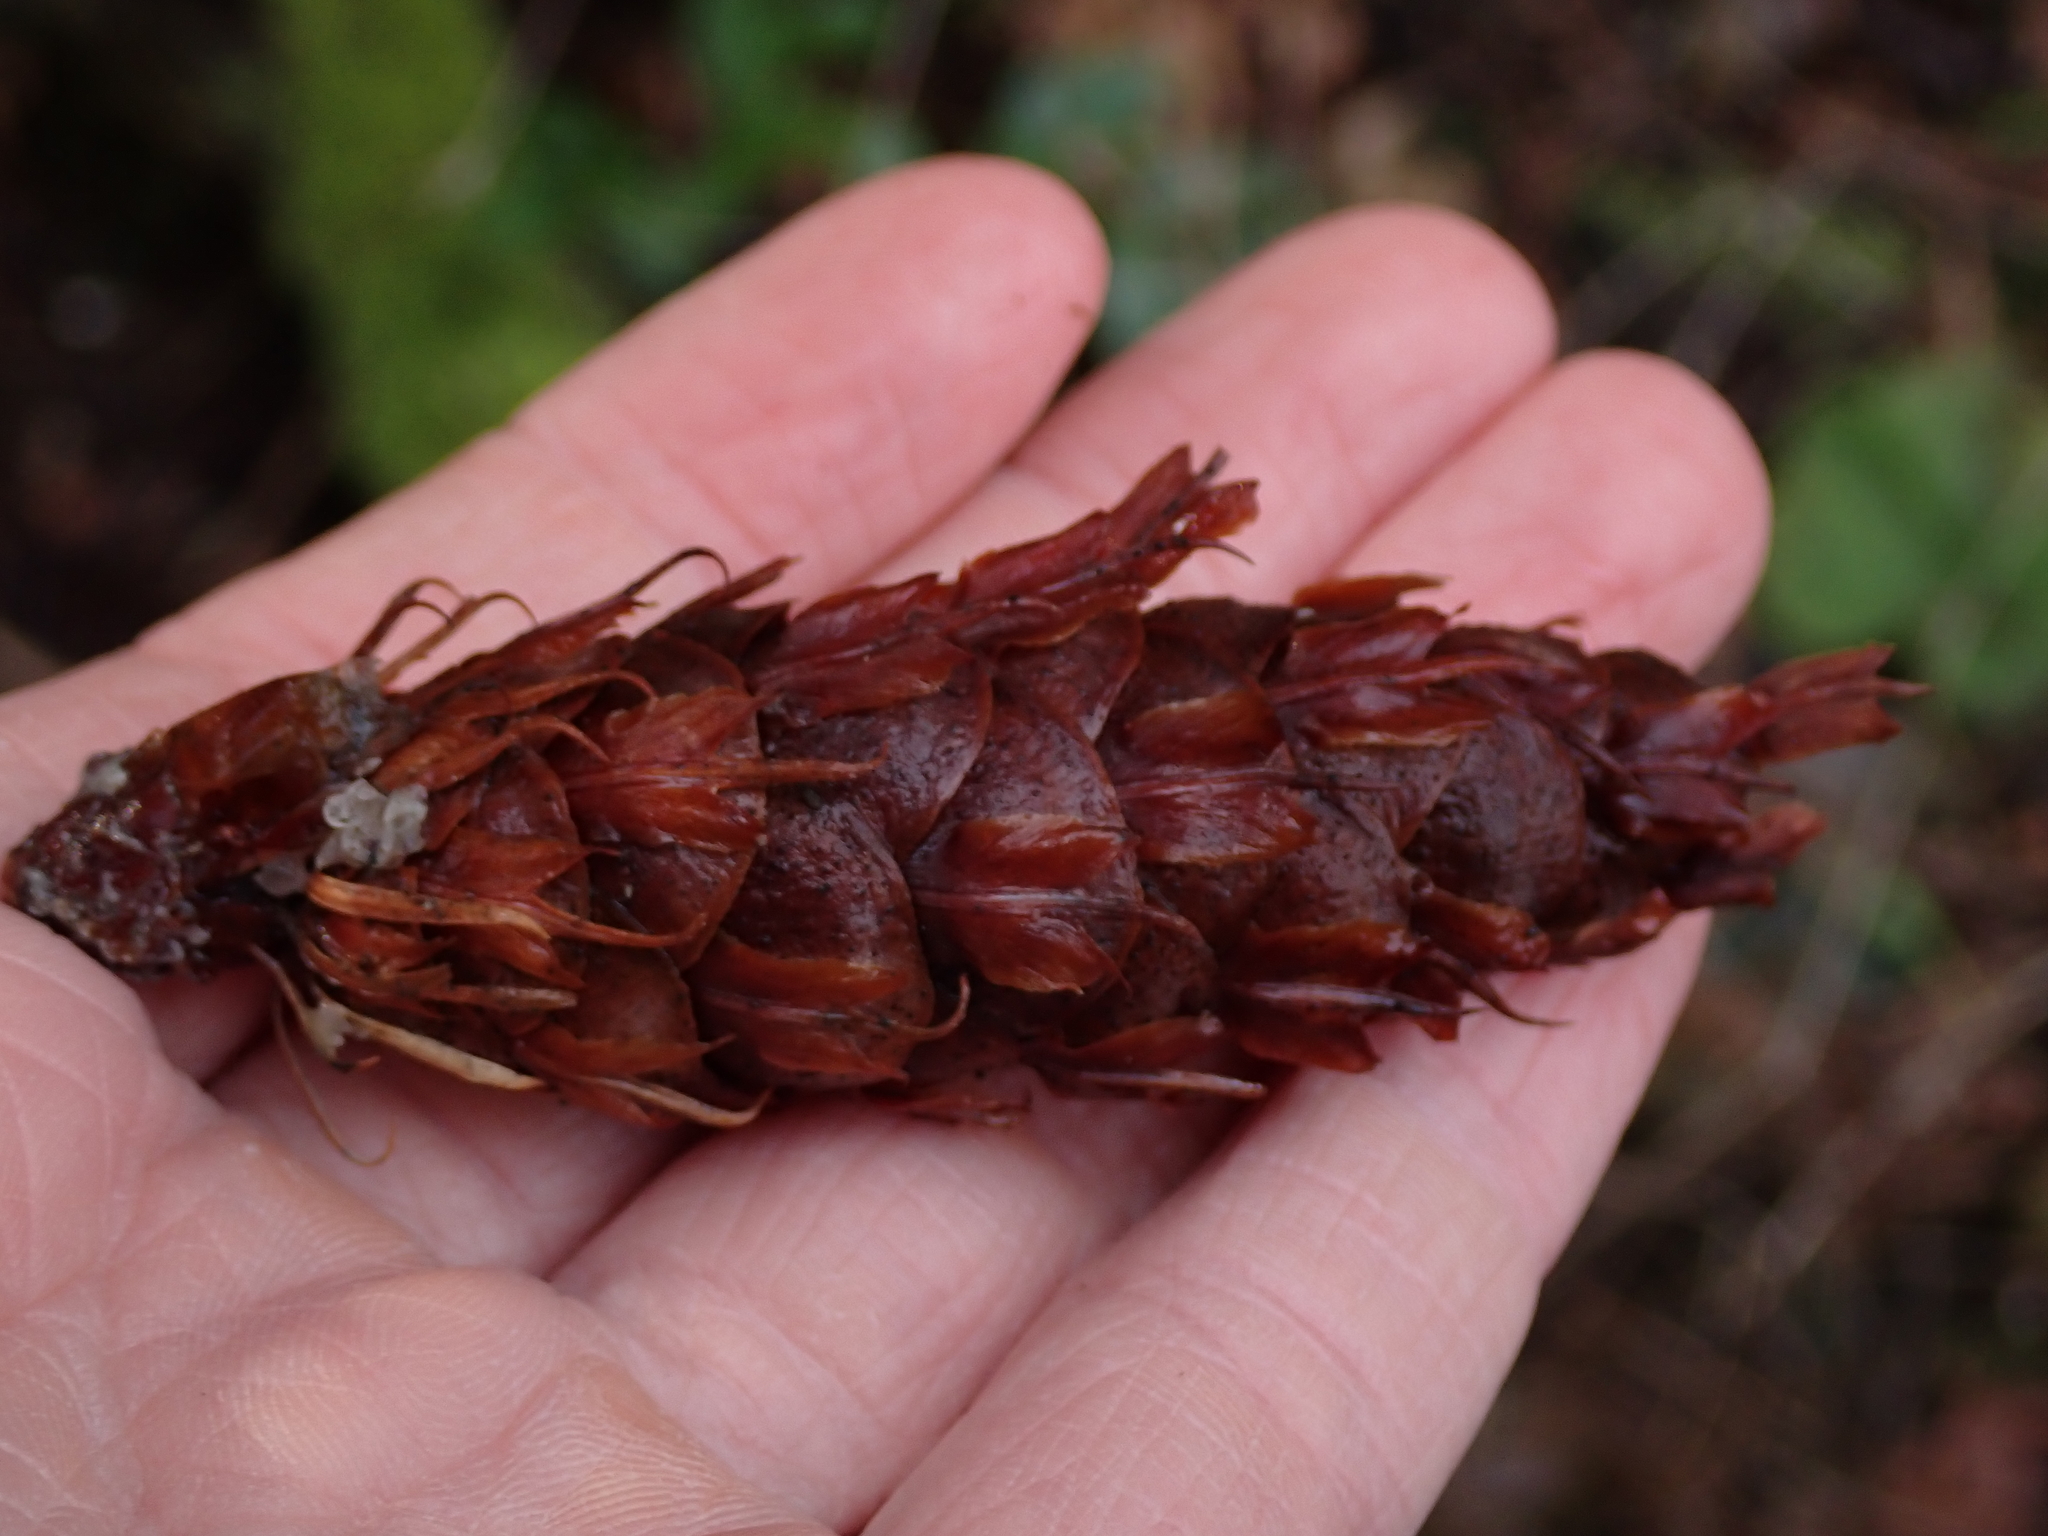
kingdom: Plantae
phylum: Tracheophyta
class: Pinopsida
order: Pinales
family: Pinaceae
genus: Pseudotsuga
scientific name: Pseudotsuga menziesii
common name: Douglas fir
